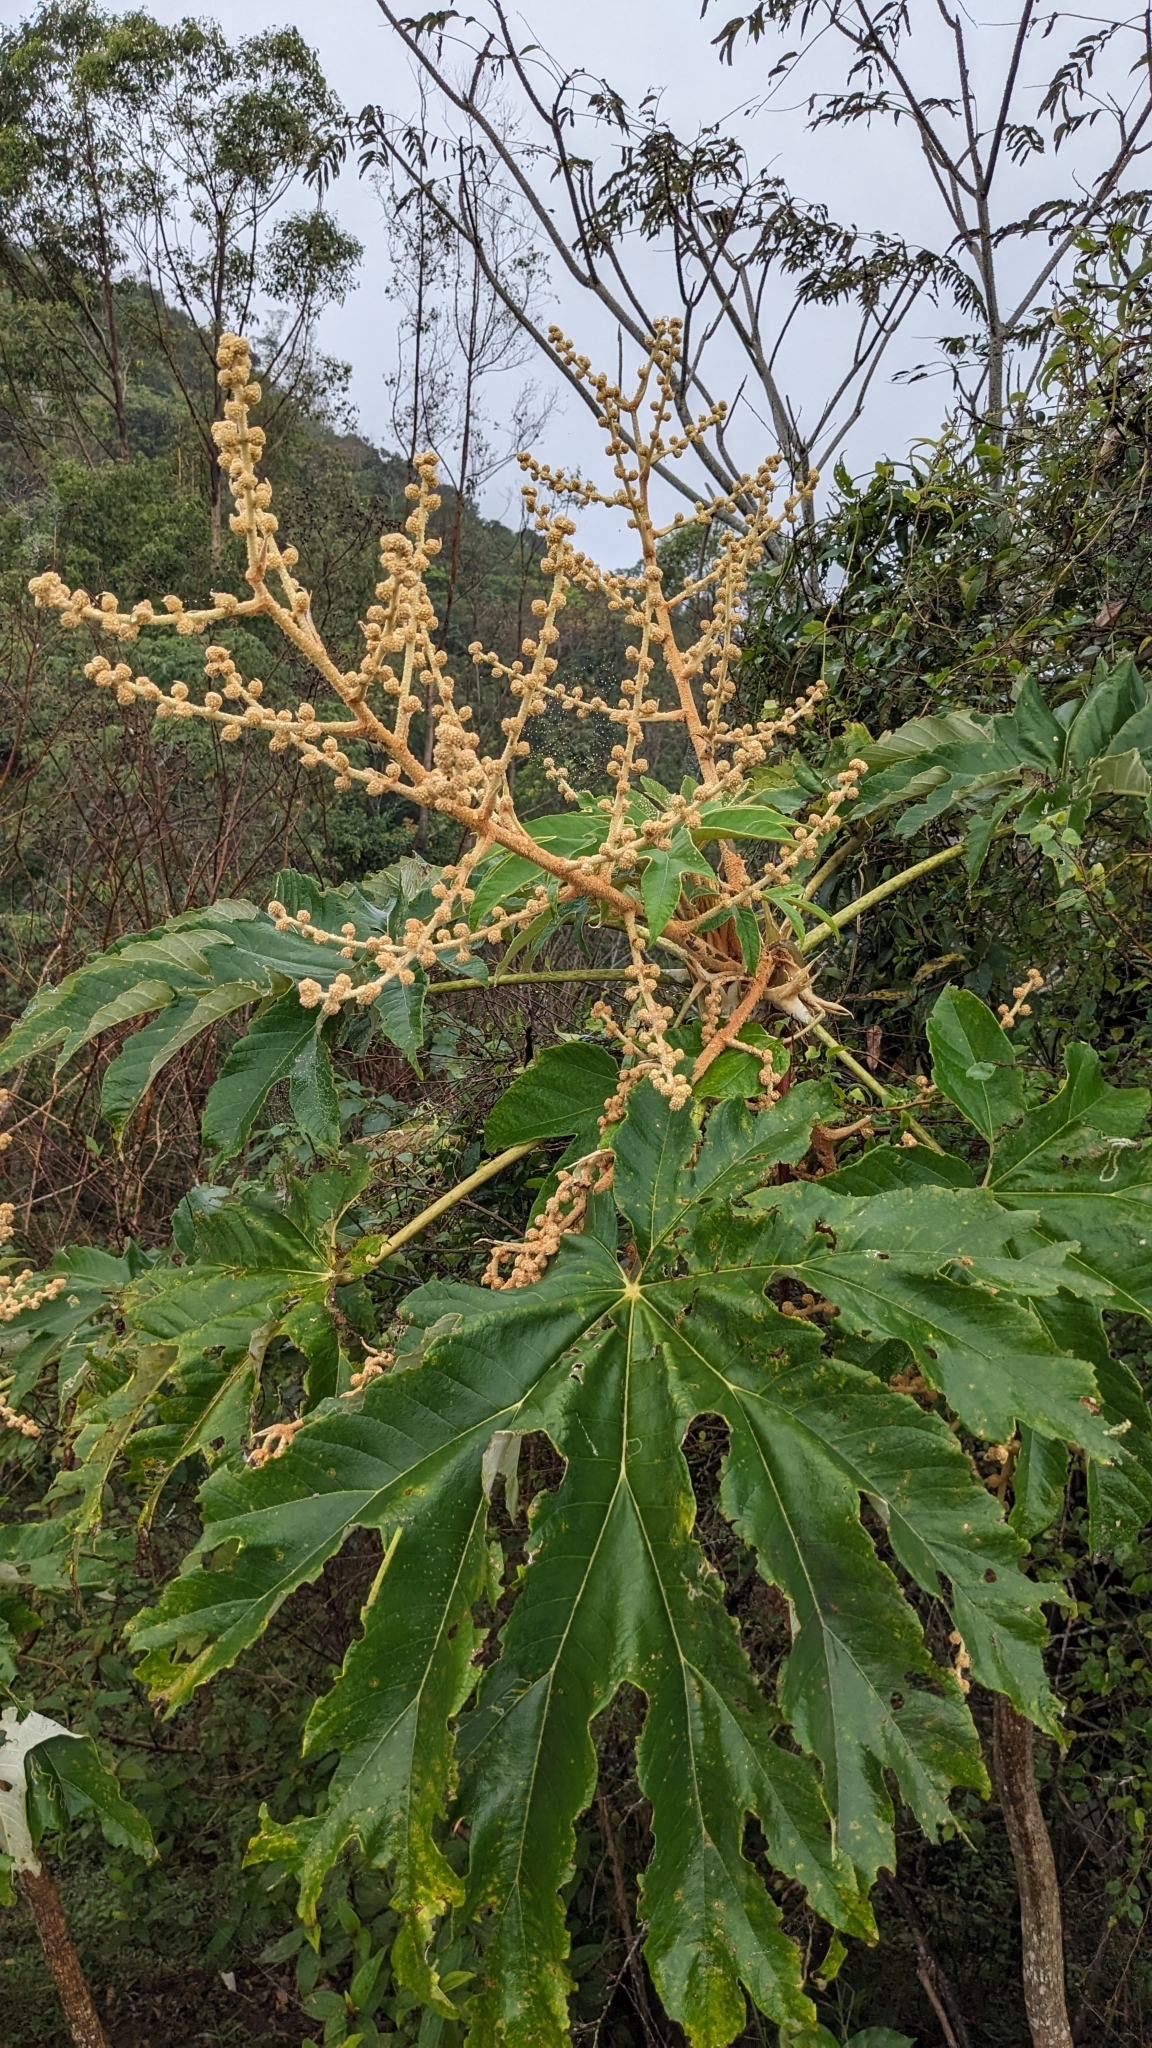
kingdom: Plantae
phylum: Tracheophyta
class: Magnoliopsida
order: Apiales
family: Araliaceae
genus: Tetrapanax
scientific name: Tetrapanax papyrifer
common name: Rice-paper plant
